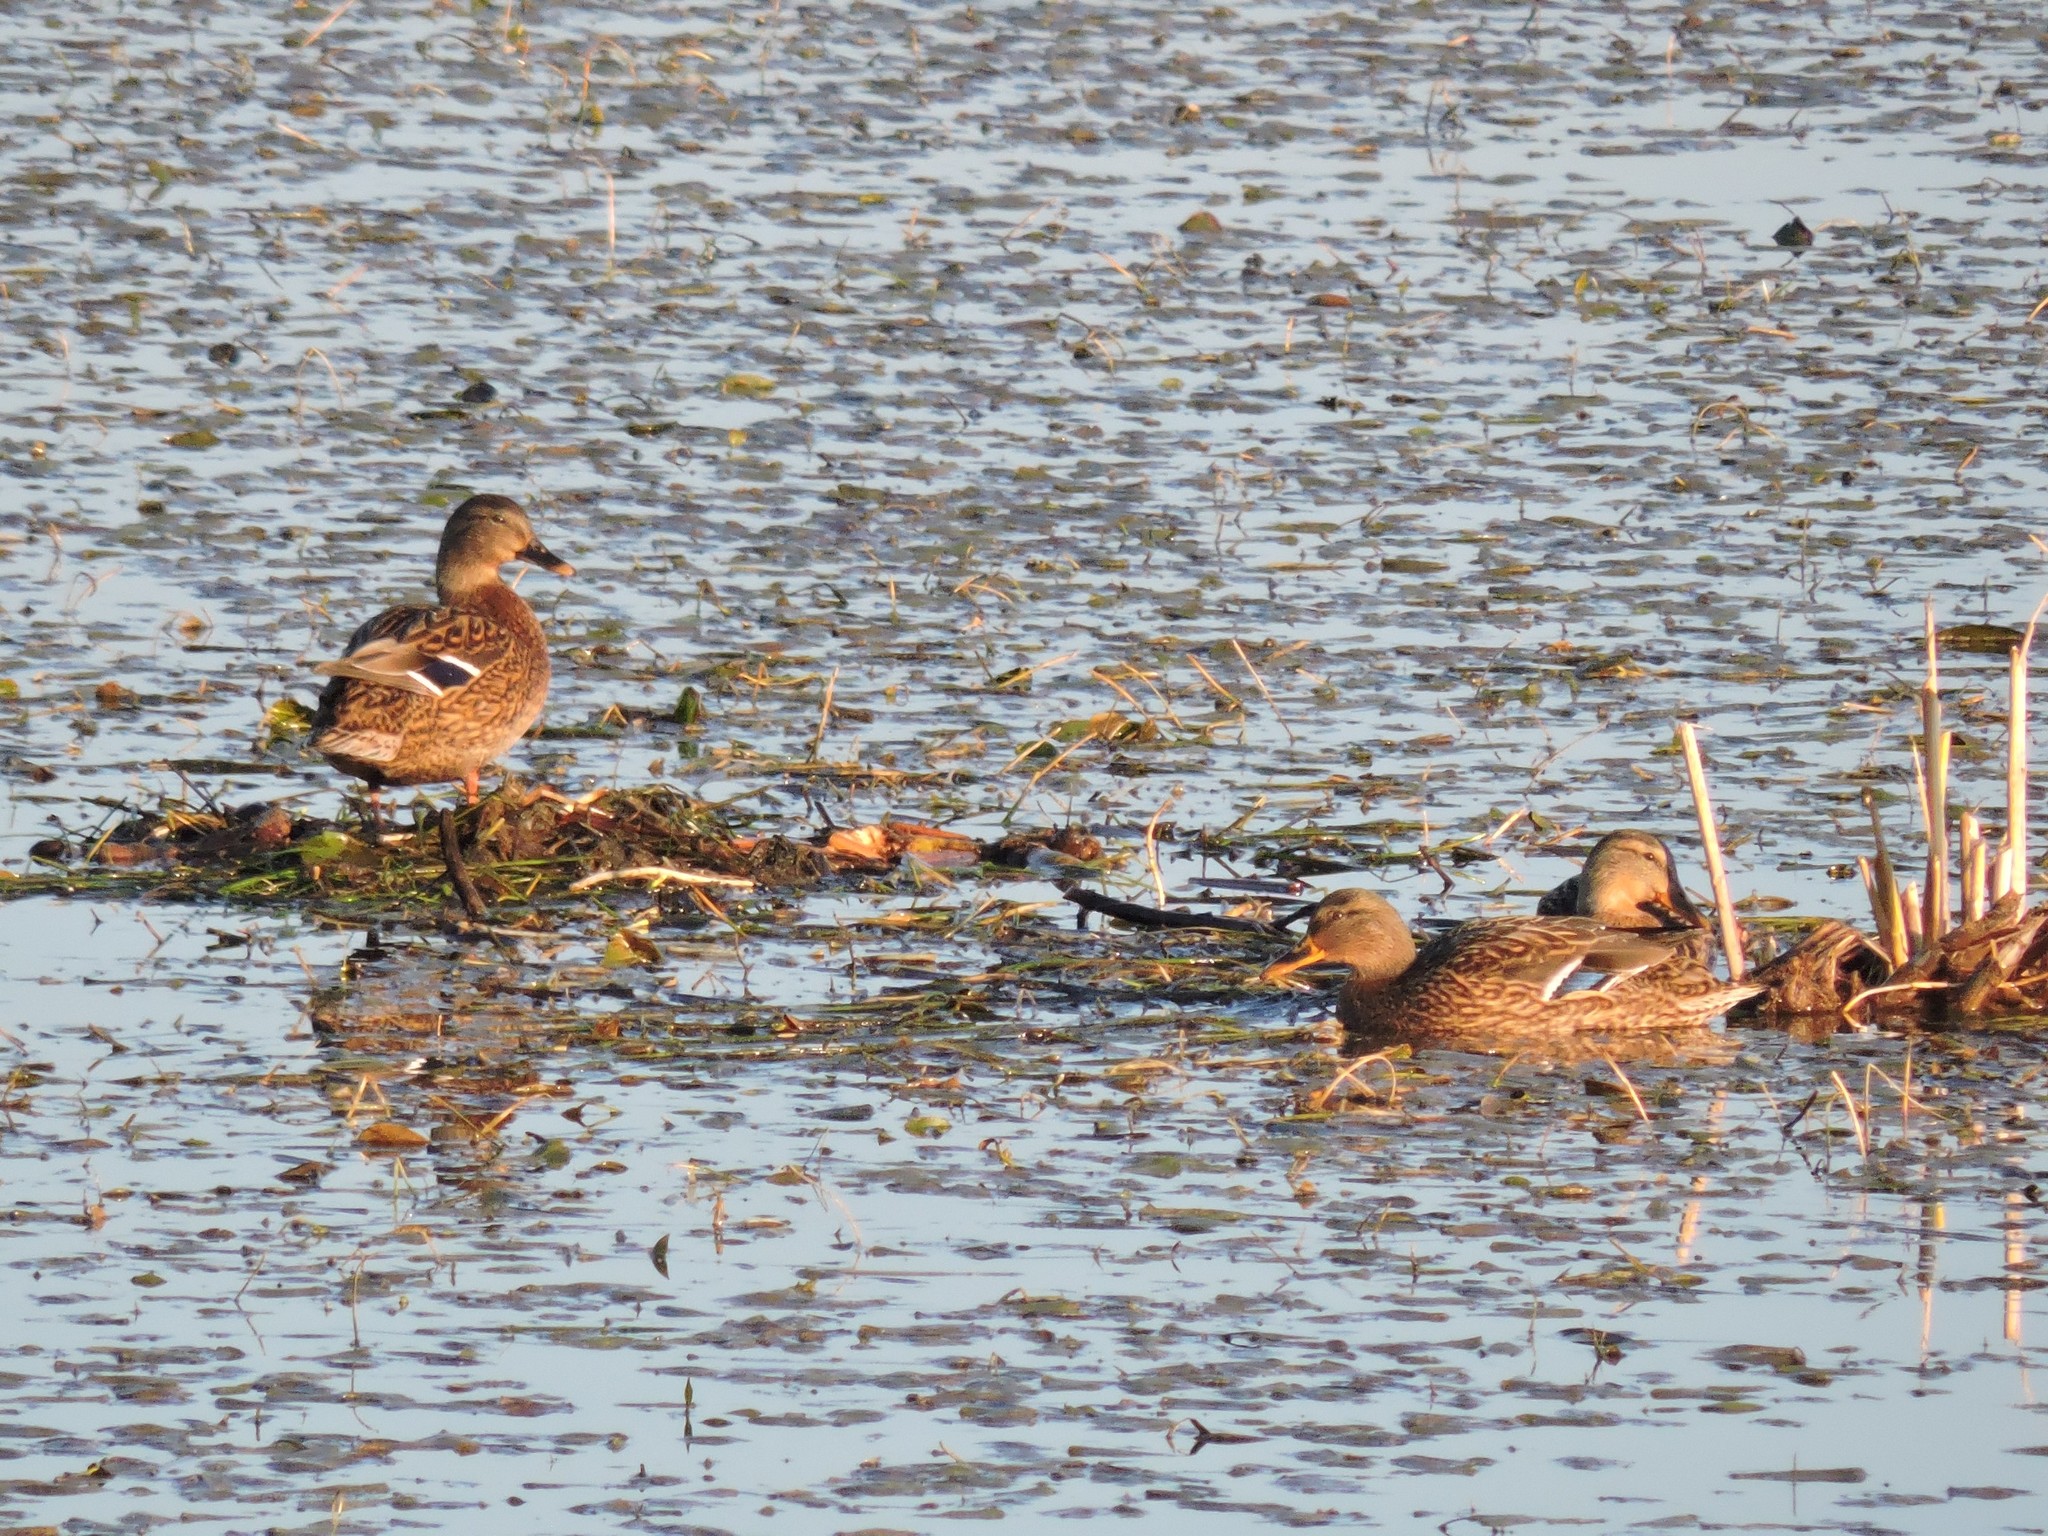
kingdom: Animalia
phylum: Chordata
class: Aves
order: Anseriformes
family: Anatidae
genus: Anas
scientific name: Anas platyrhynchos
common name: Mallard
